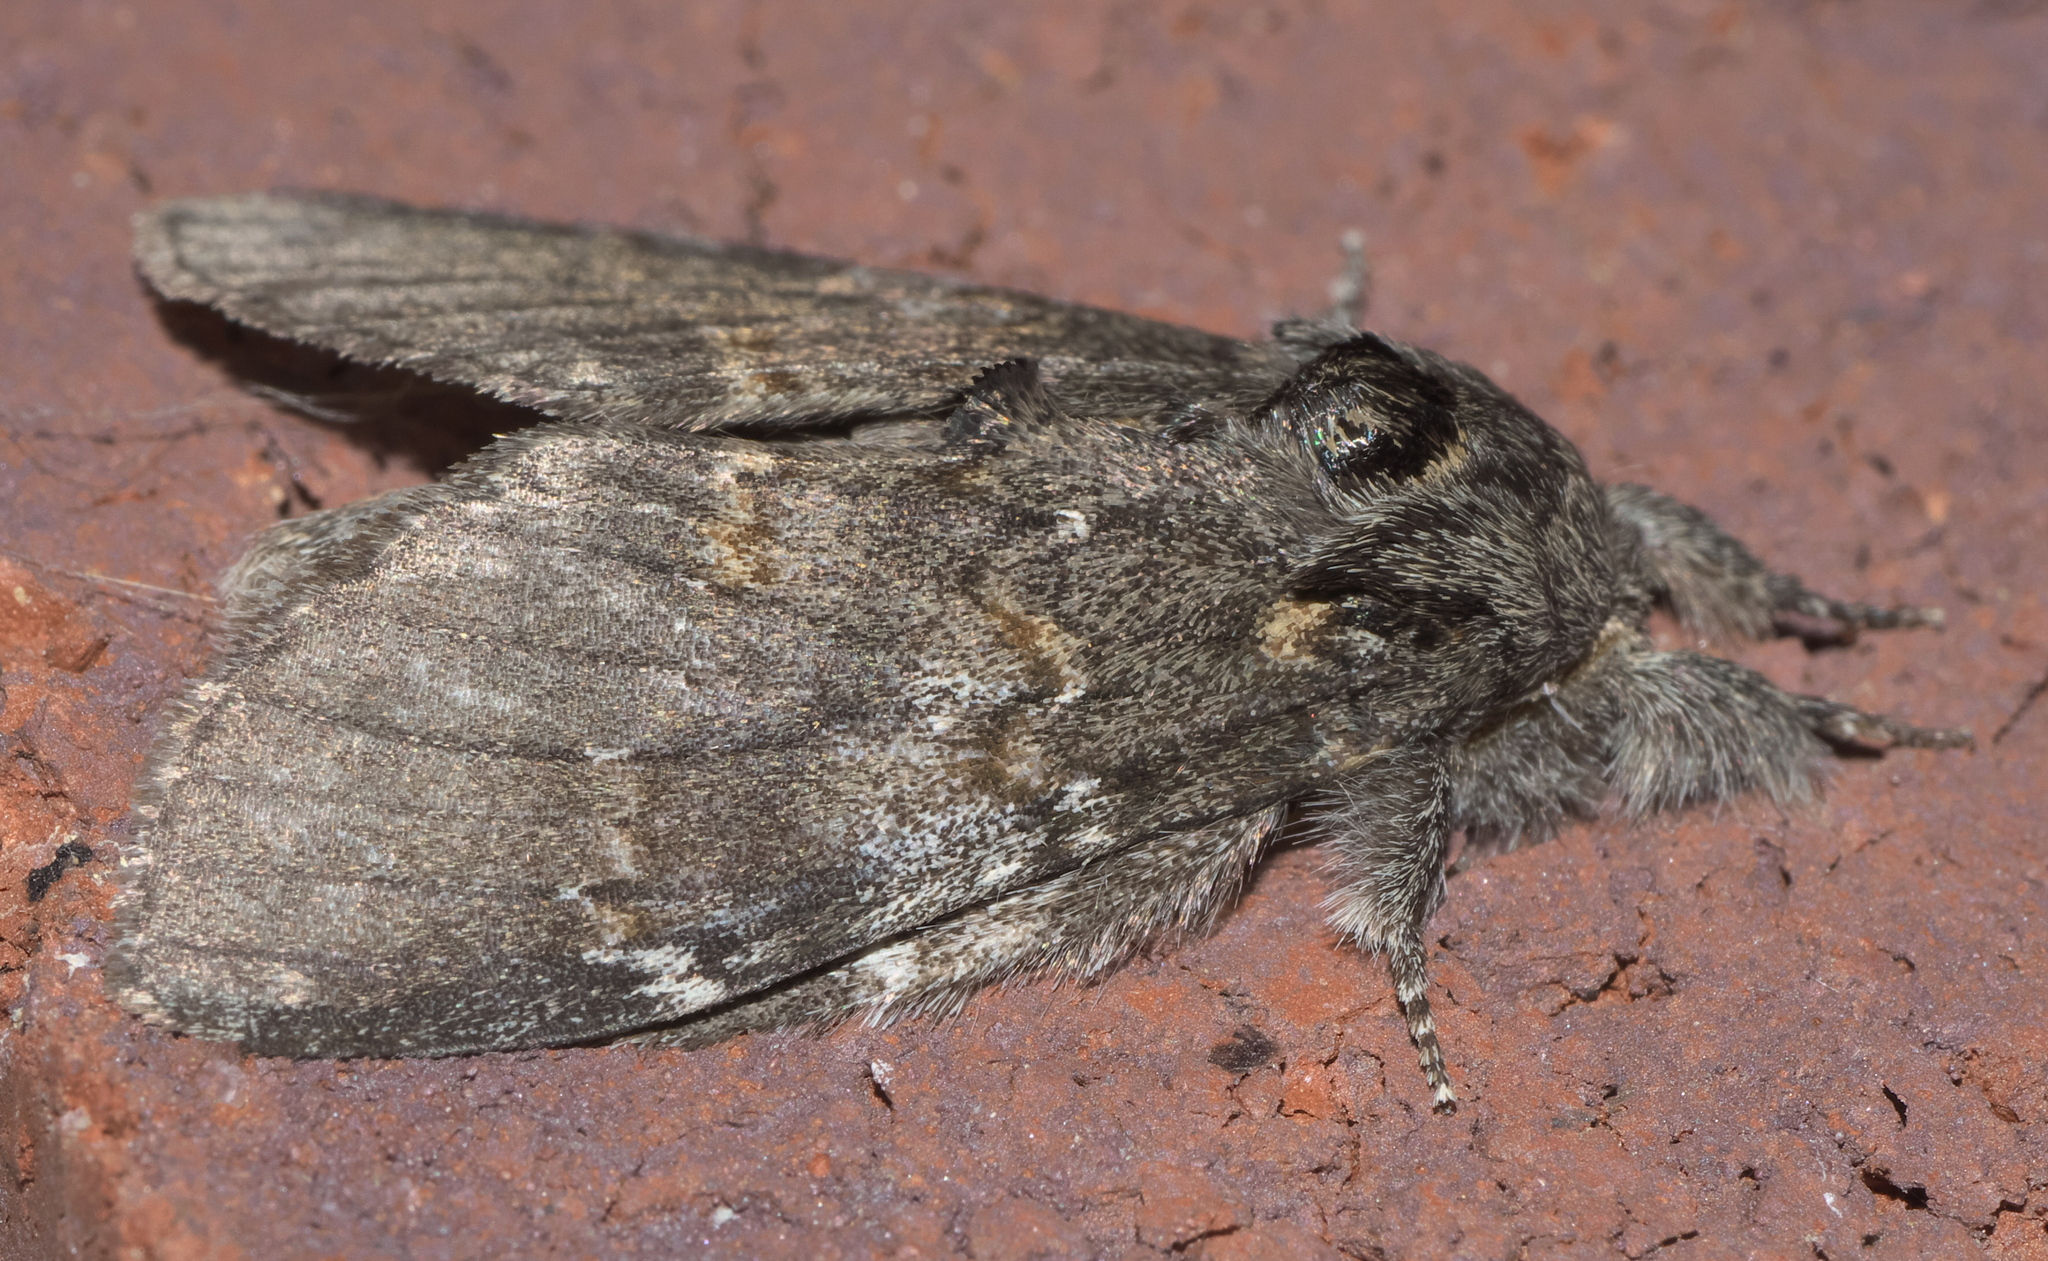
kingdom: Animalia
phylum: Arthropoda
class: Insecta
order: Lepidoptera
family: Notodontidae
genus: Peridea
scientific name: Peridea angulosa
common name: Angulose prominent
